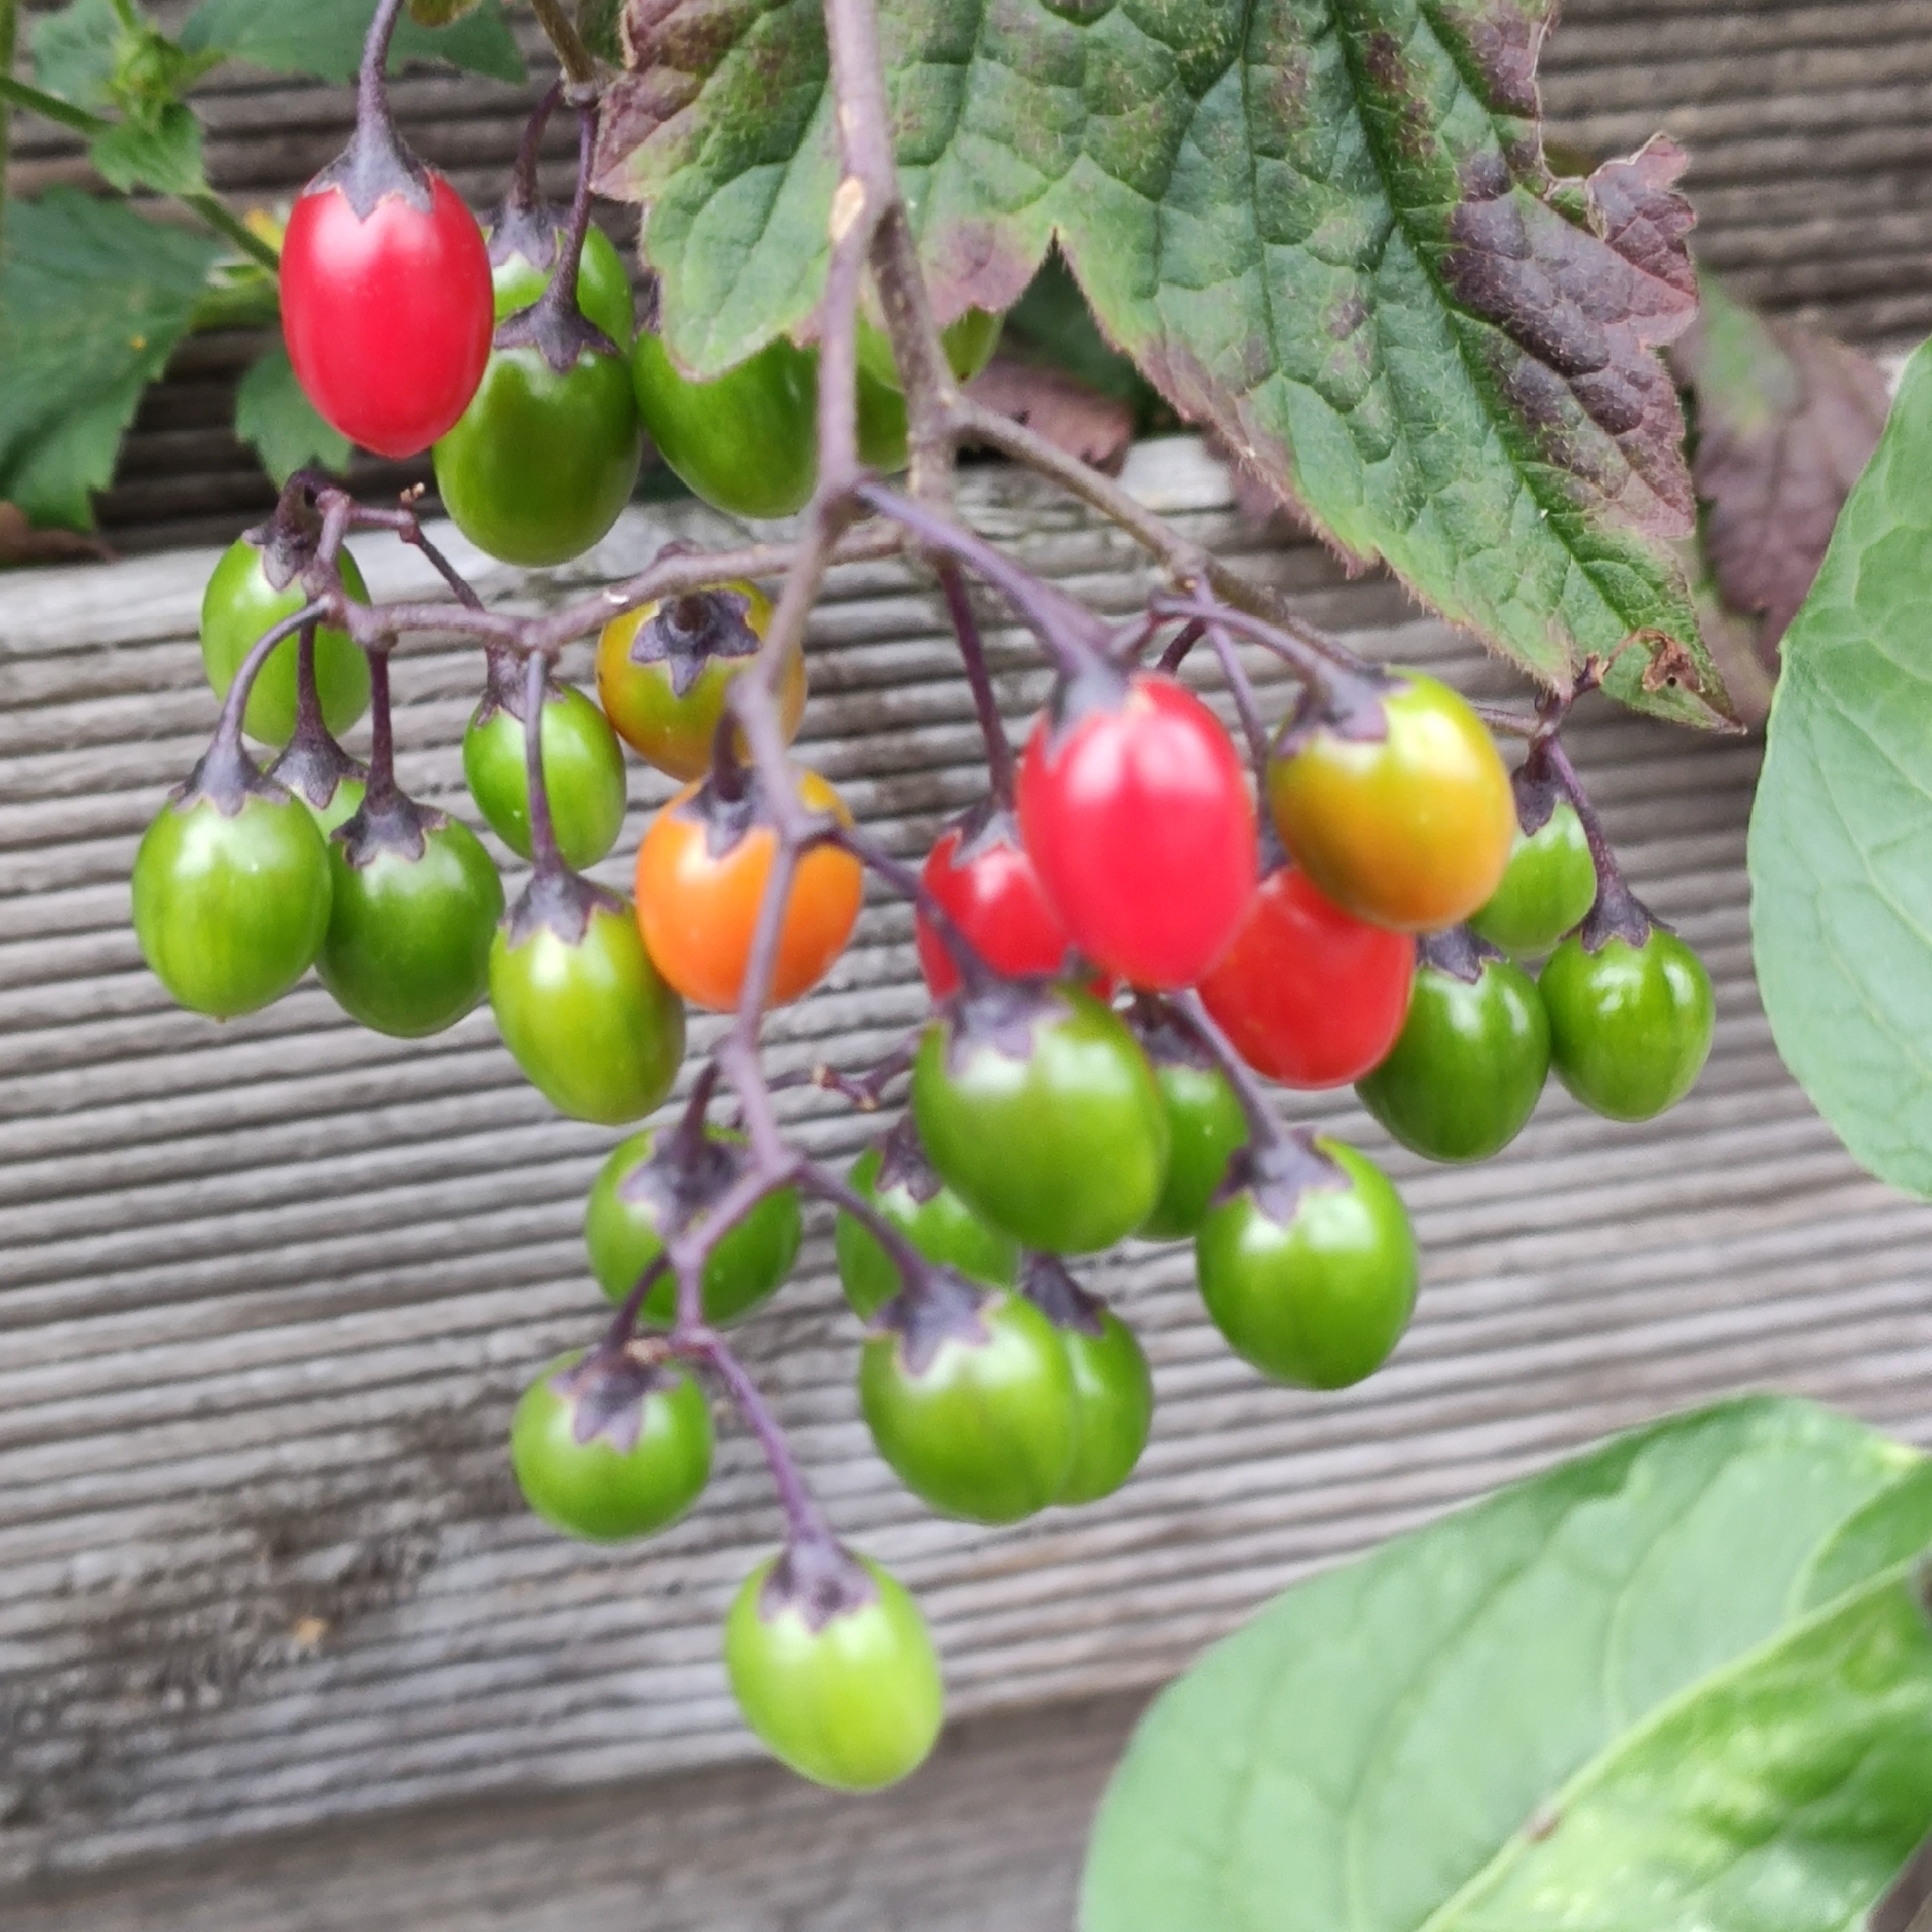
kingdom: Plantae
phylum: Tracheophyta
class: Magnoliopsida
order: Solanales
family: Solanaceae
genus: Solanum
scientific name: Solanum dulcamara
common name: Climbing nightshade
